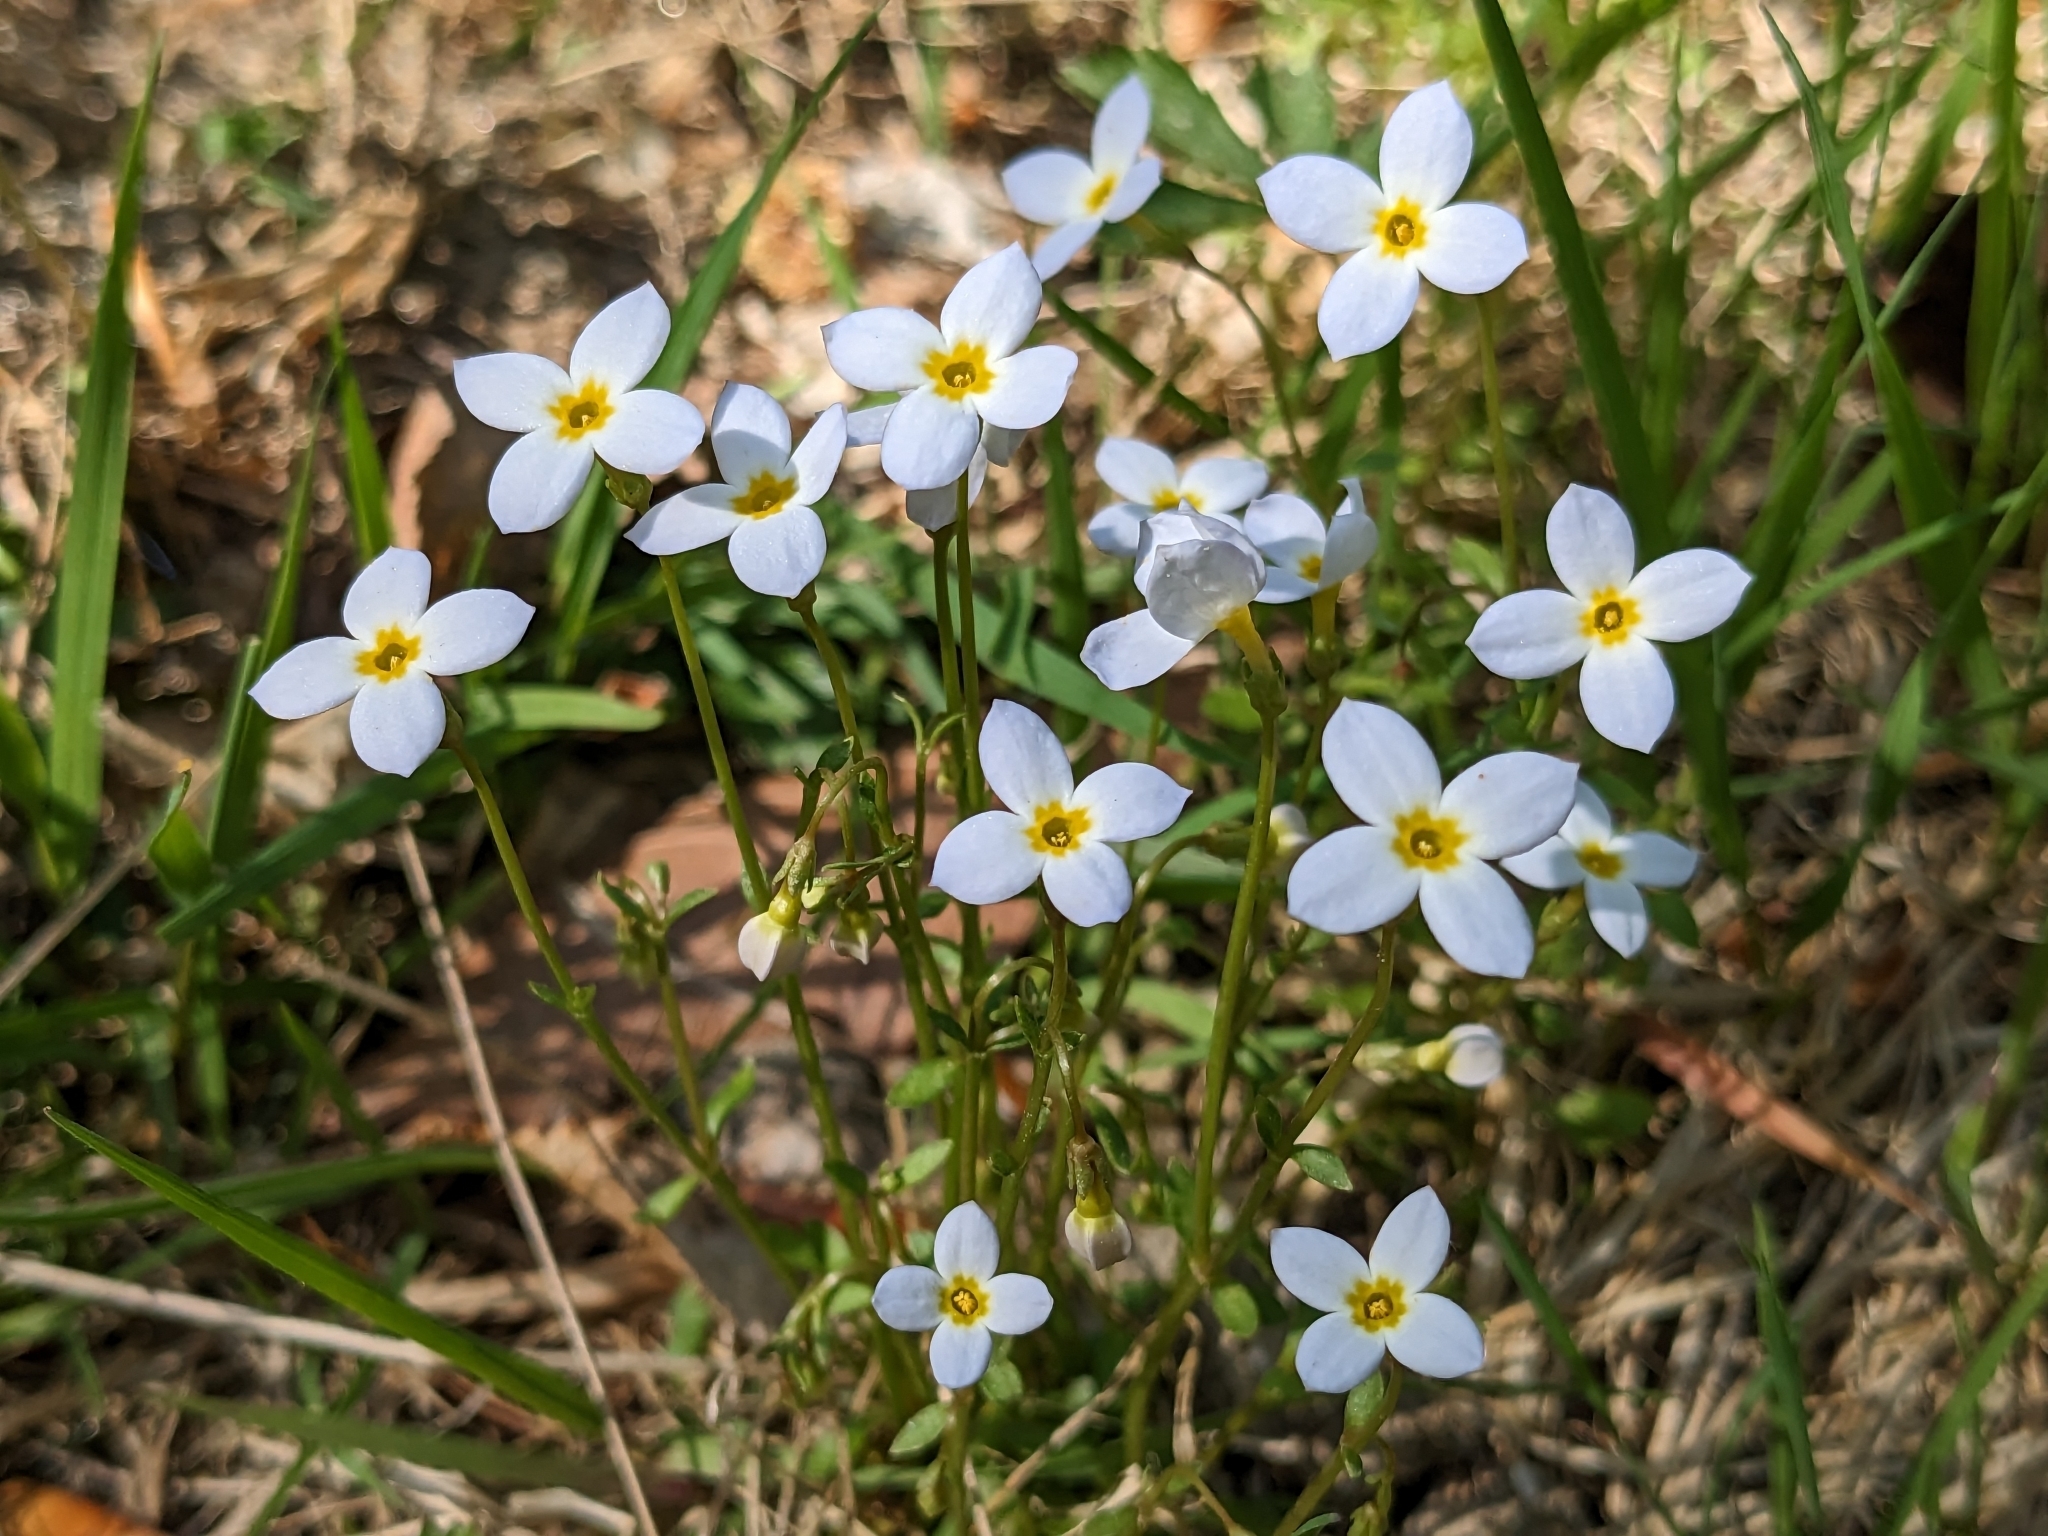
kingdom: Plantae
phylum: Tracheophyta
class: Magnoliopsida
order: Gentianales
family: Rubiaceae
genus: Houstonia
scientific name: Houstonia caerulea
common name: Bluets
